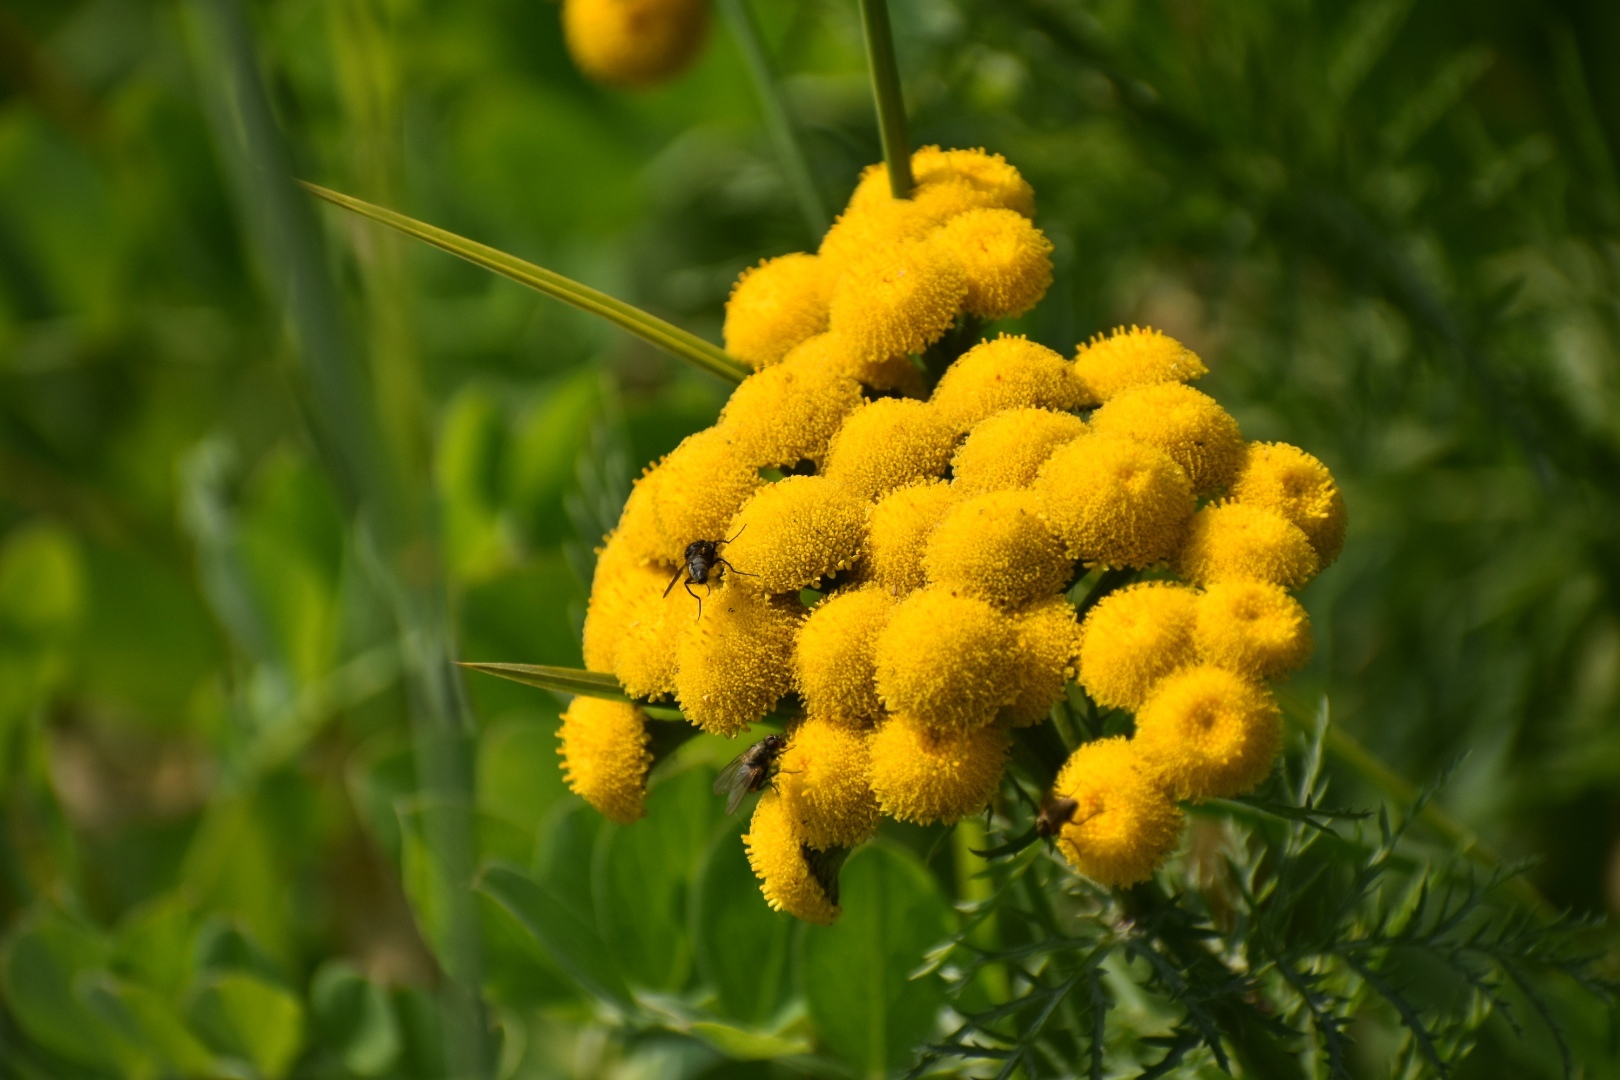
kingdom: Plantae
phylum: Tracheophyta
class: Magnoliopsida
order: Asterales
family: Asteraceae
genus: Tanacetum
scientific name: Tanacetum vulgare
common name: Common tansy
